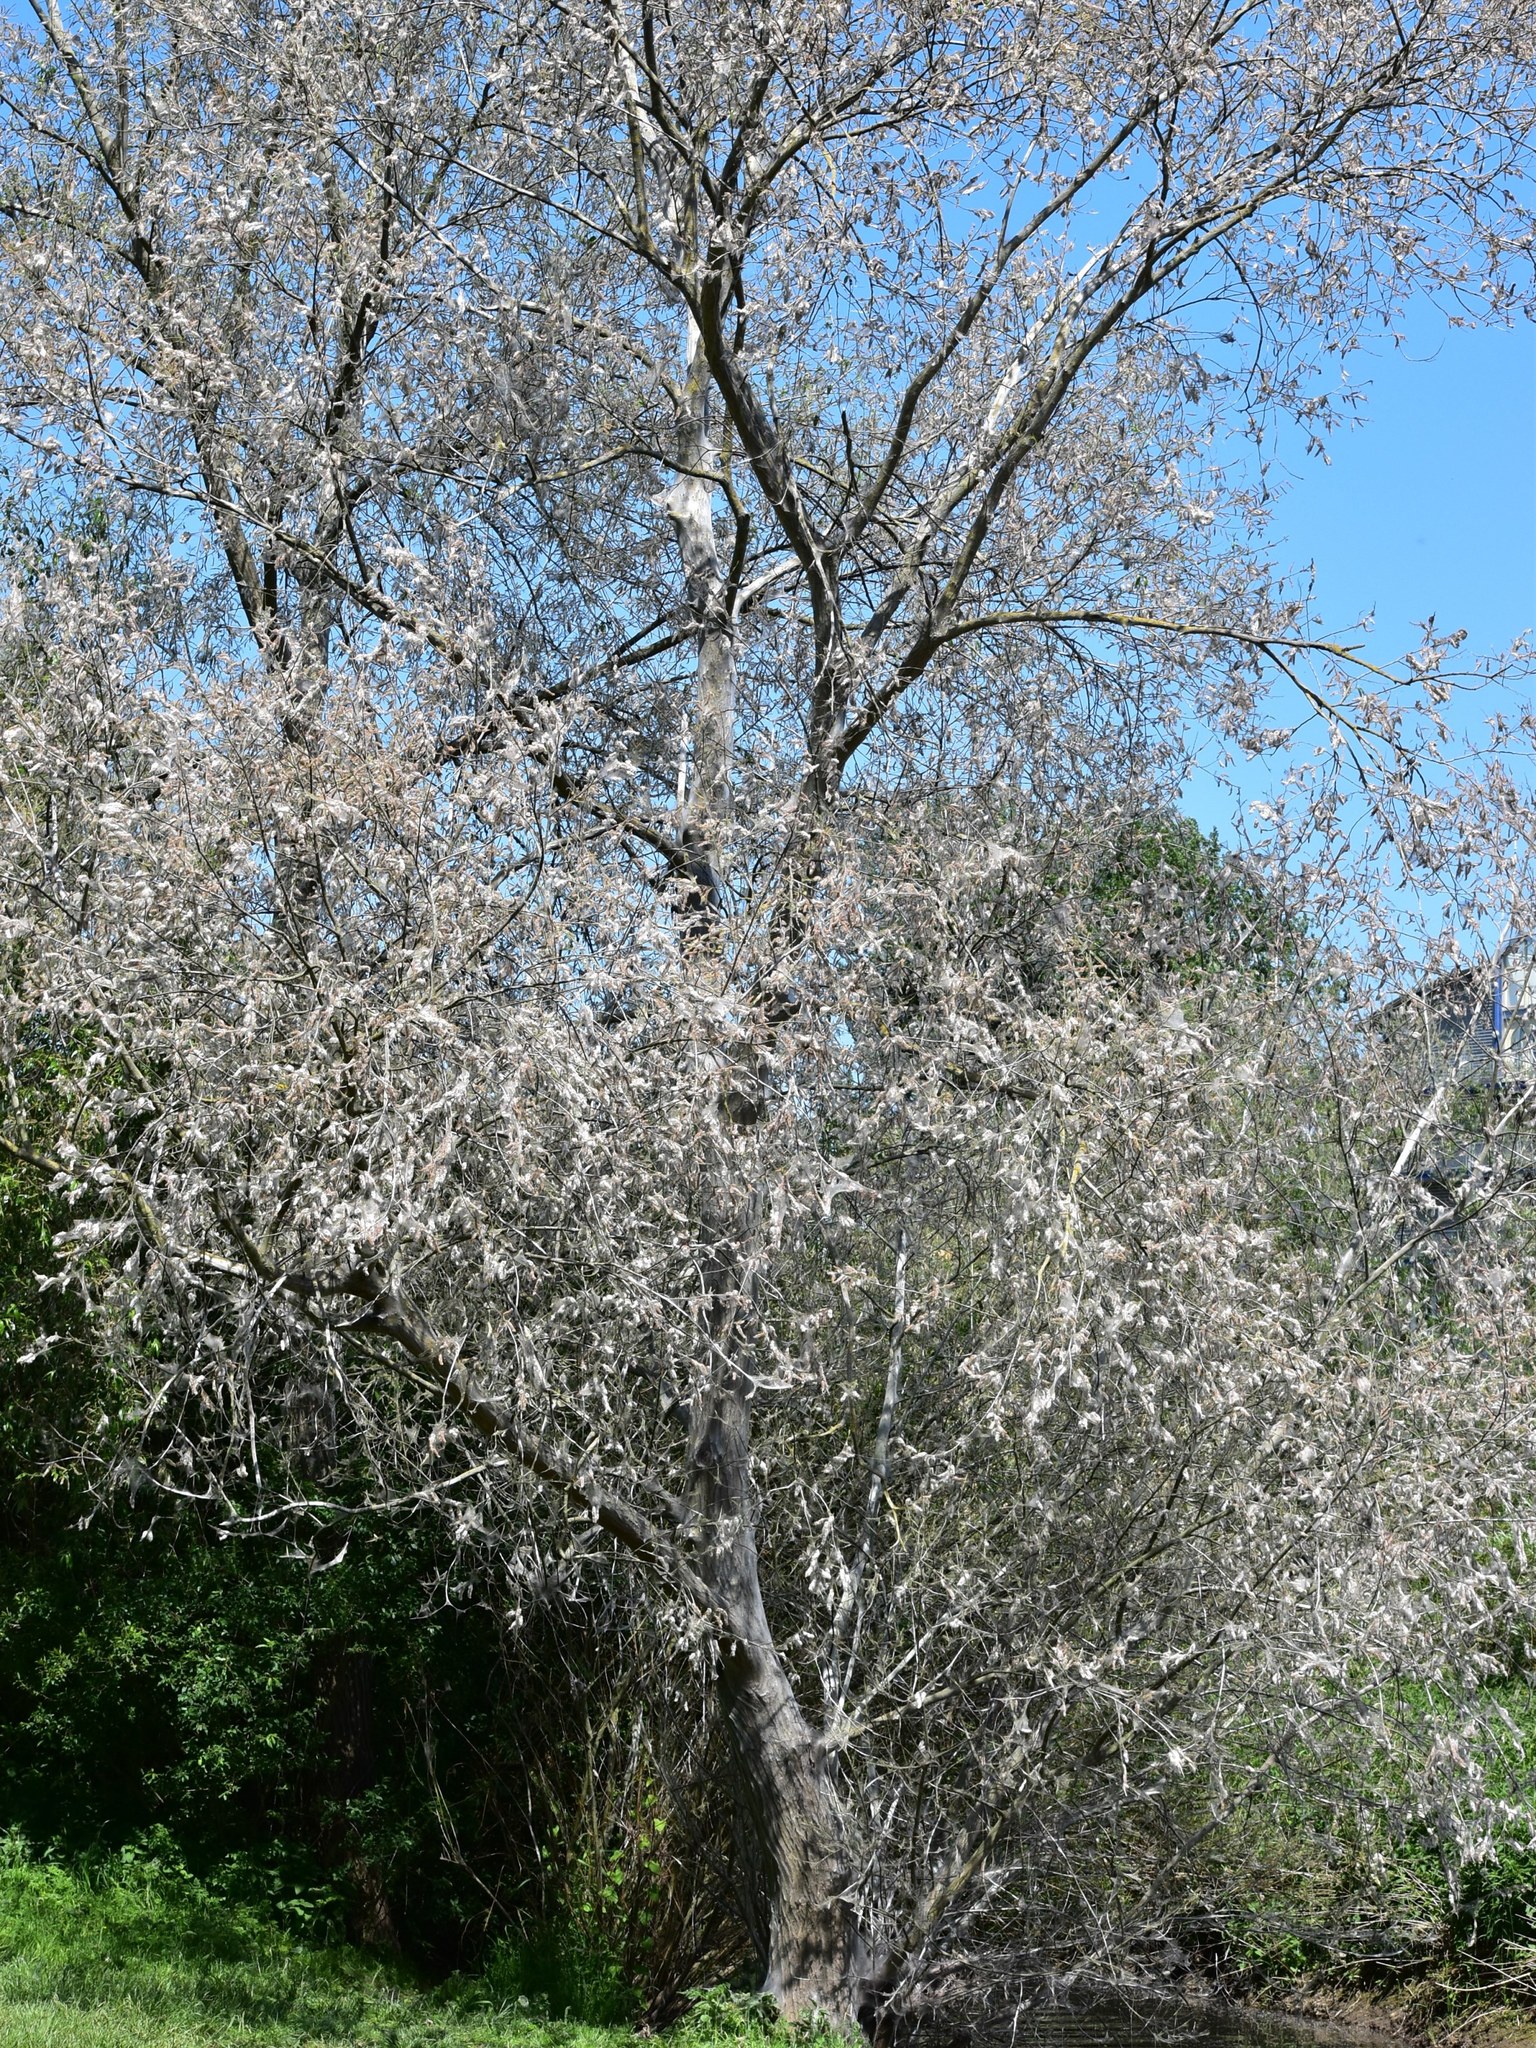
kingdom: Animalia
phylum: Arthropoda
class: Insecta
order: Lepidoptera
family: Yponomeutidae
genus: Yponomeuta
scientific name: Yponomeuta padella
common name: Orchard ermine
